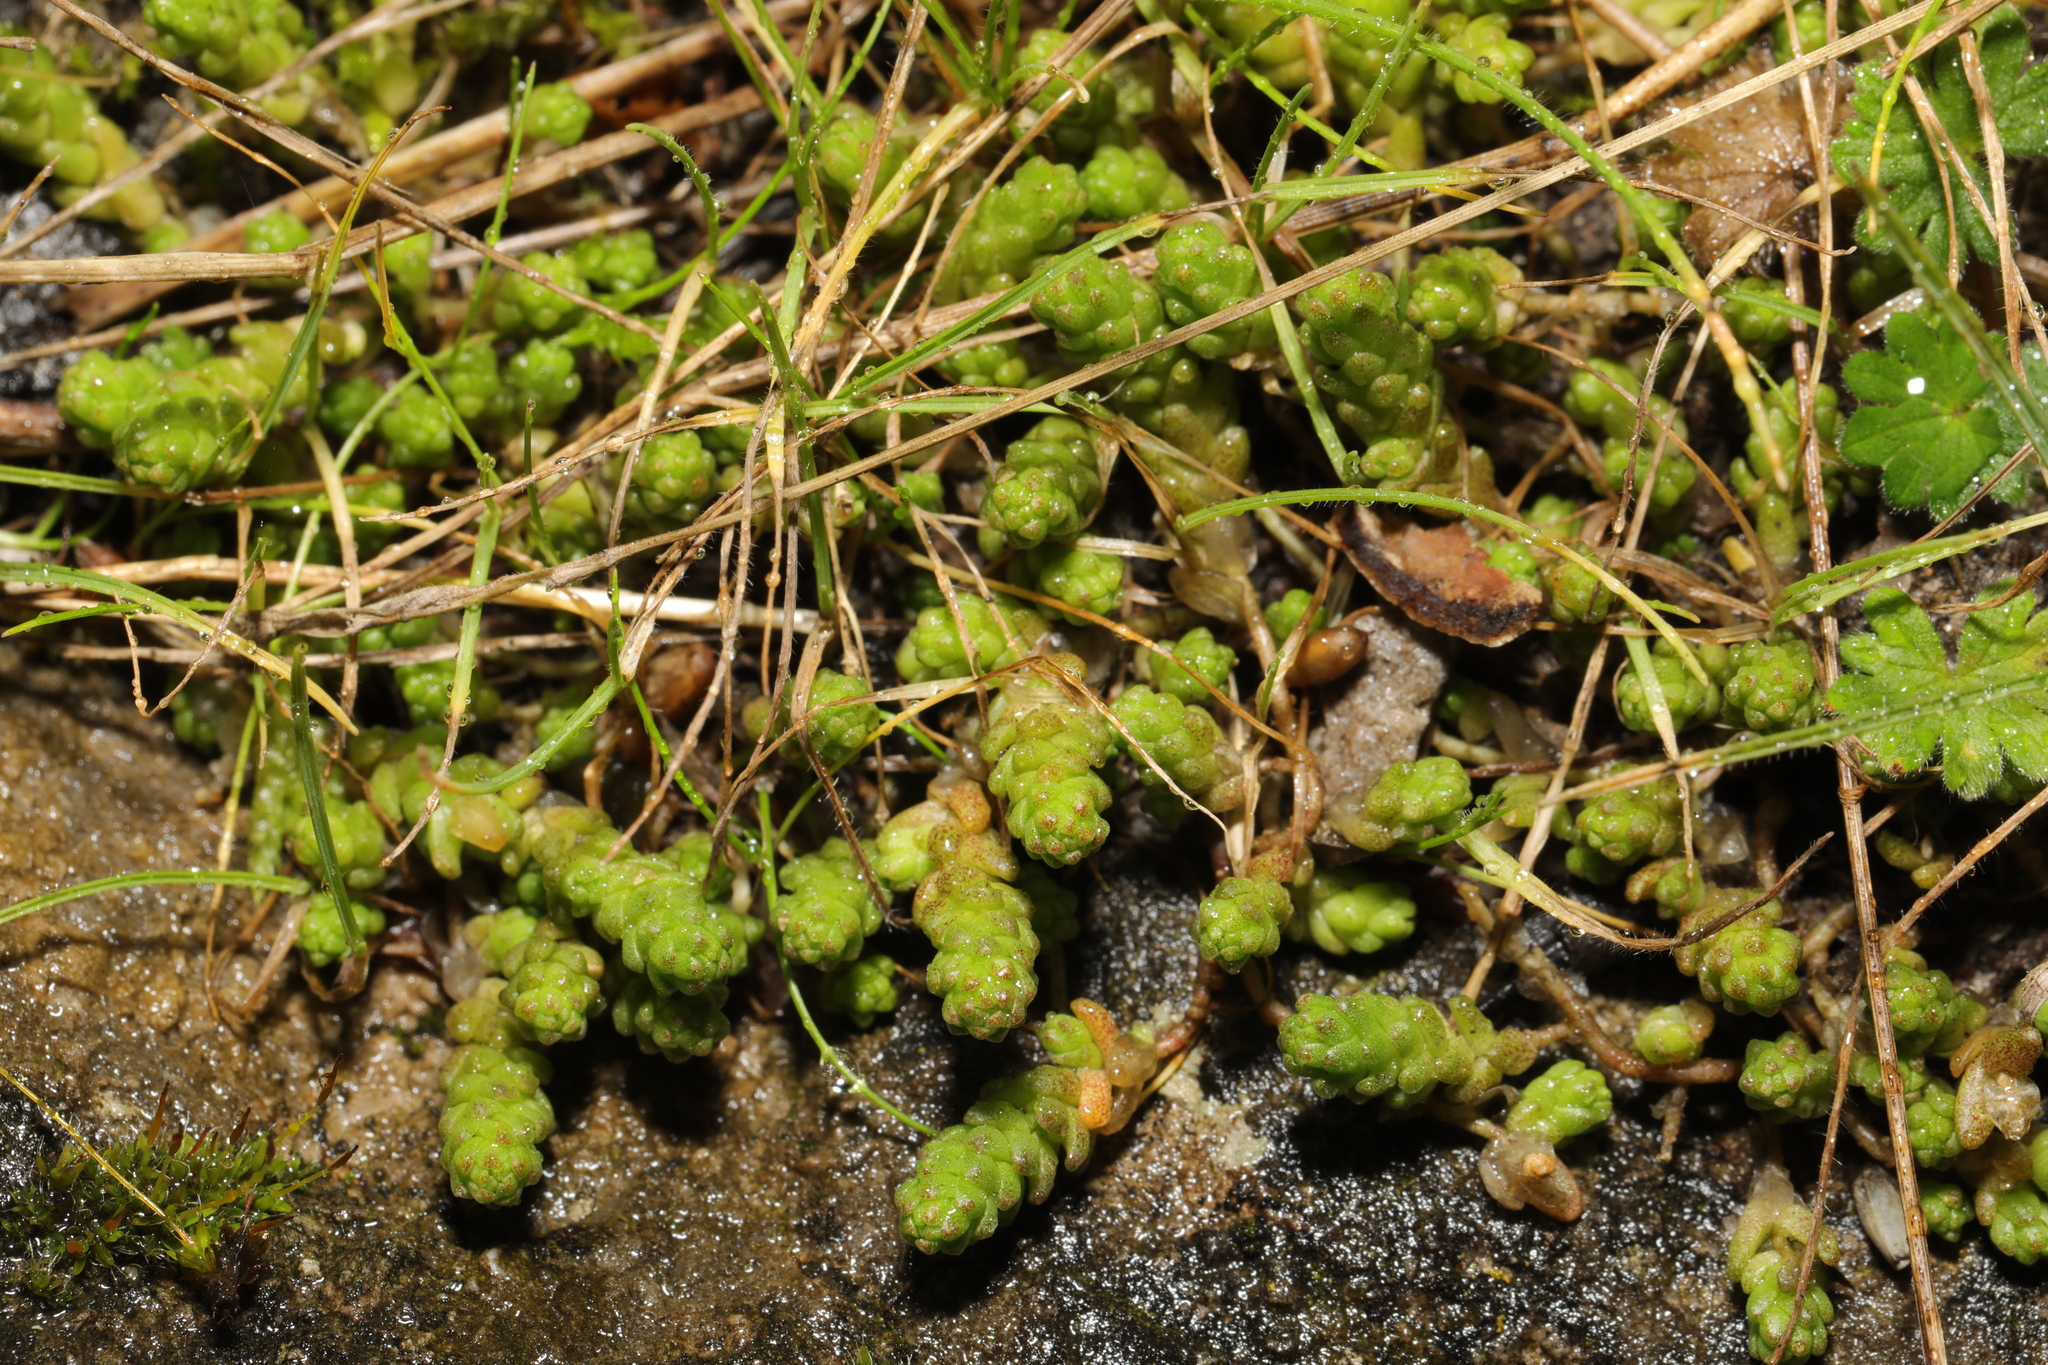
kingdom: Plantae
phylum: Tracheophyta
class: Magnoliopsida
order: Saxifragales
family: Crassulaceae
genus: Sedum
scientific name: Sedum acre
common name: Biting stonecrop
